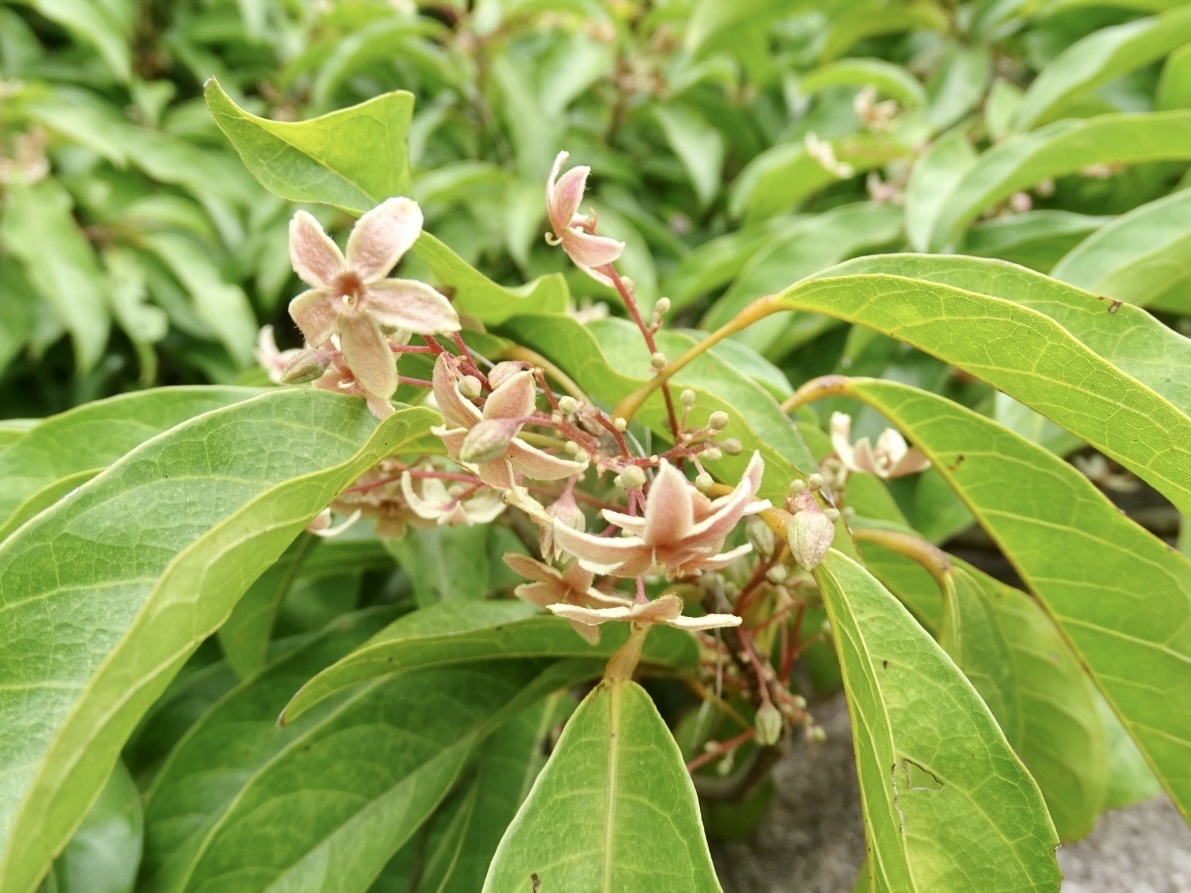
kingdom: Plantae
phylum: Tracheophyta
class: Magnoliopsida
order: Malvales
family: Malvaceae
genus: Sterculia
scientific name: Sterculia lanceolata
